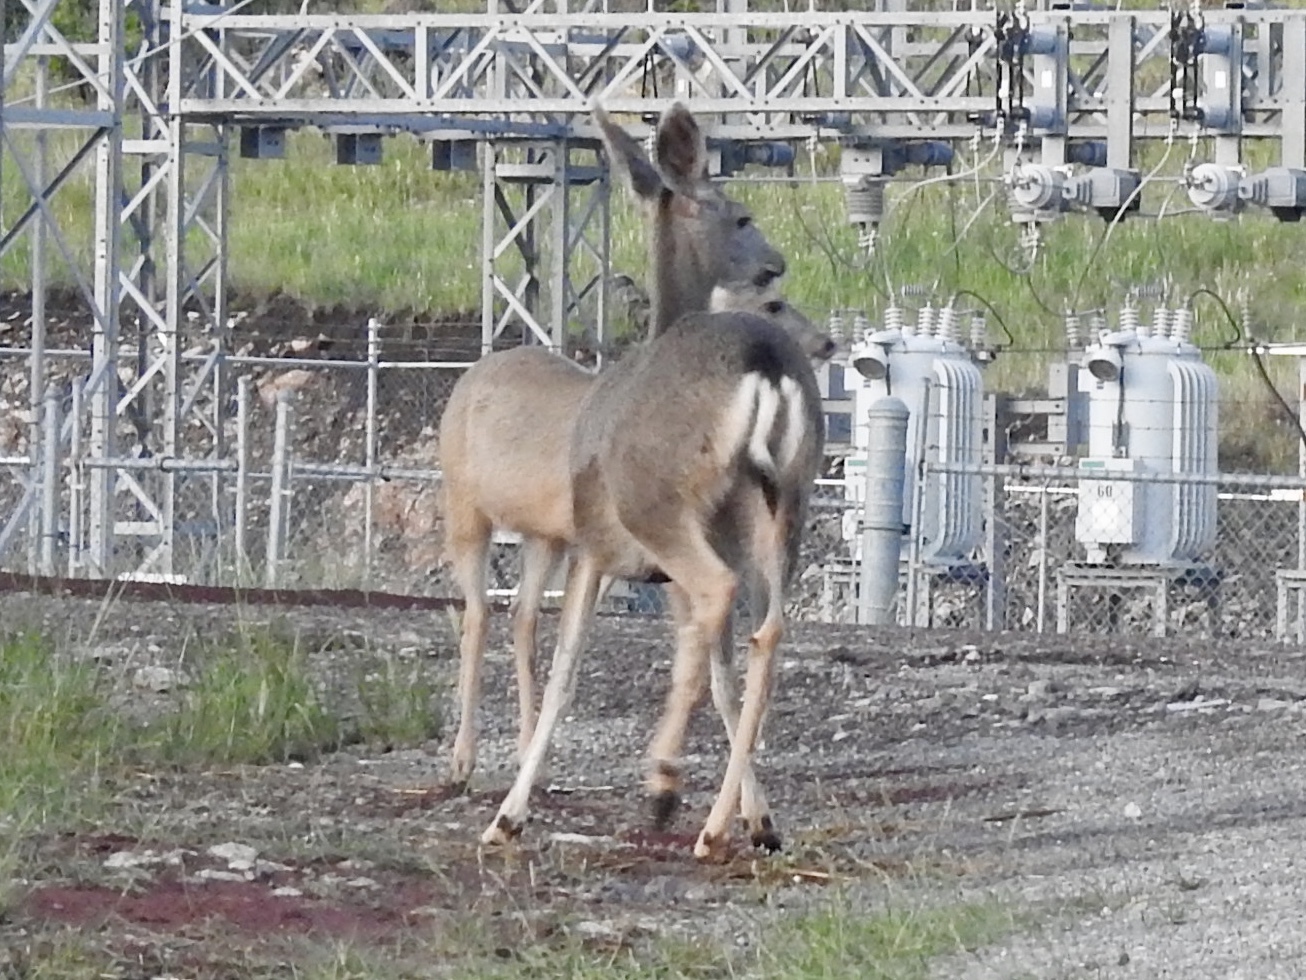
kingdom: Animalia
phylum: Chordata
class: Mammalia
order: Artiodactyla
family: Cervidae
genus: Odocoileus
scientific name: Odocoileus hemionus
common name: Mule deer
